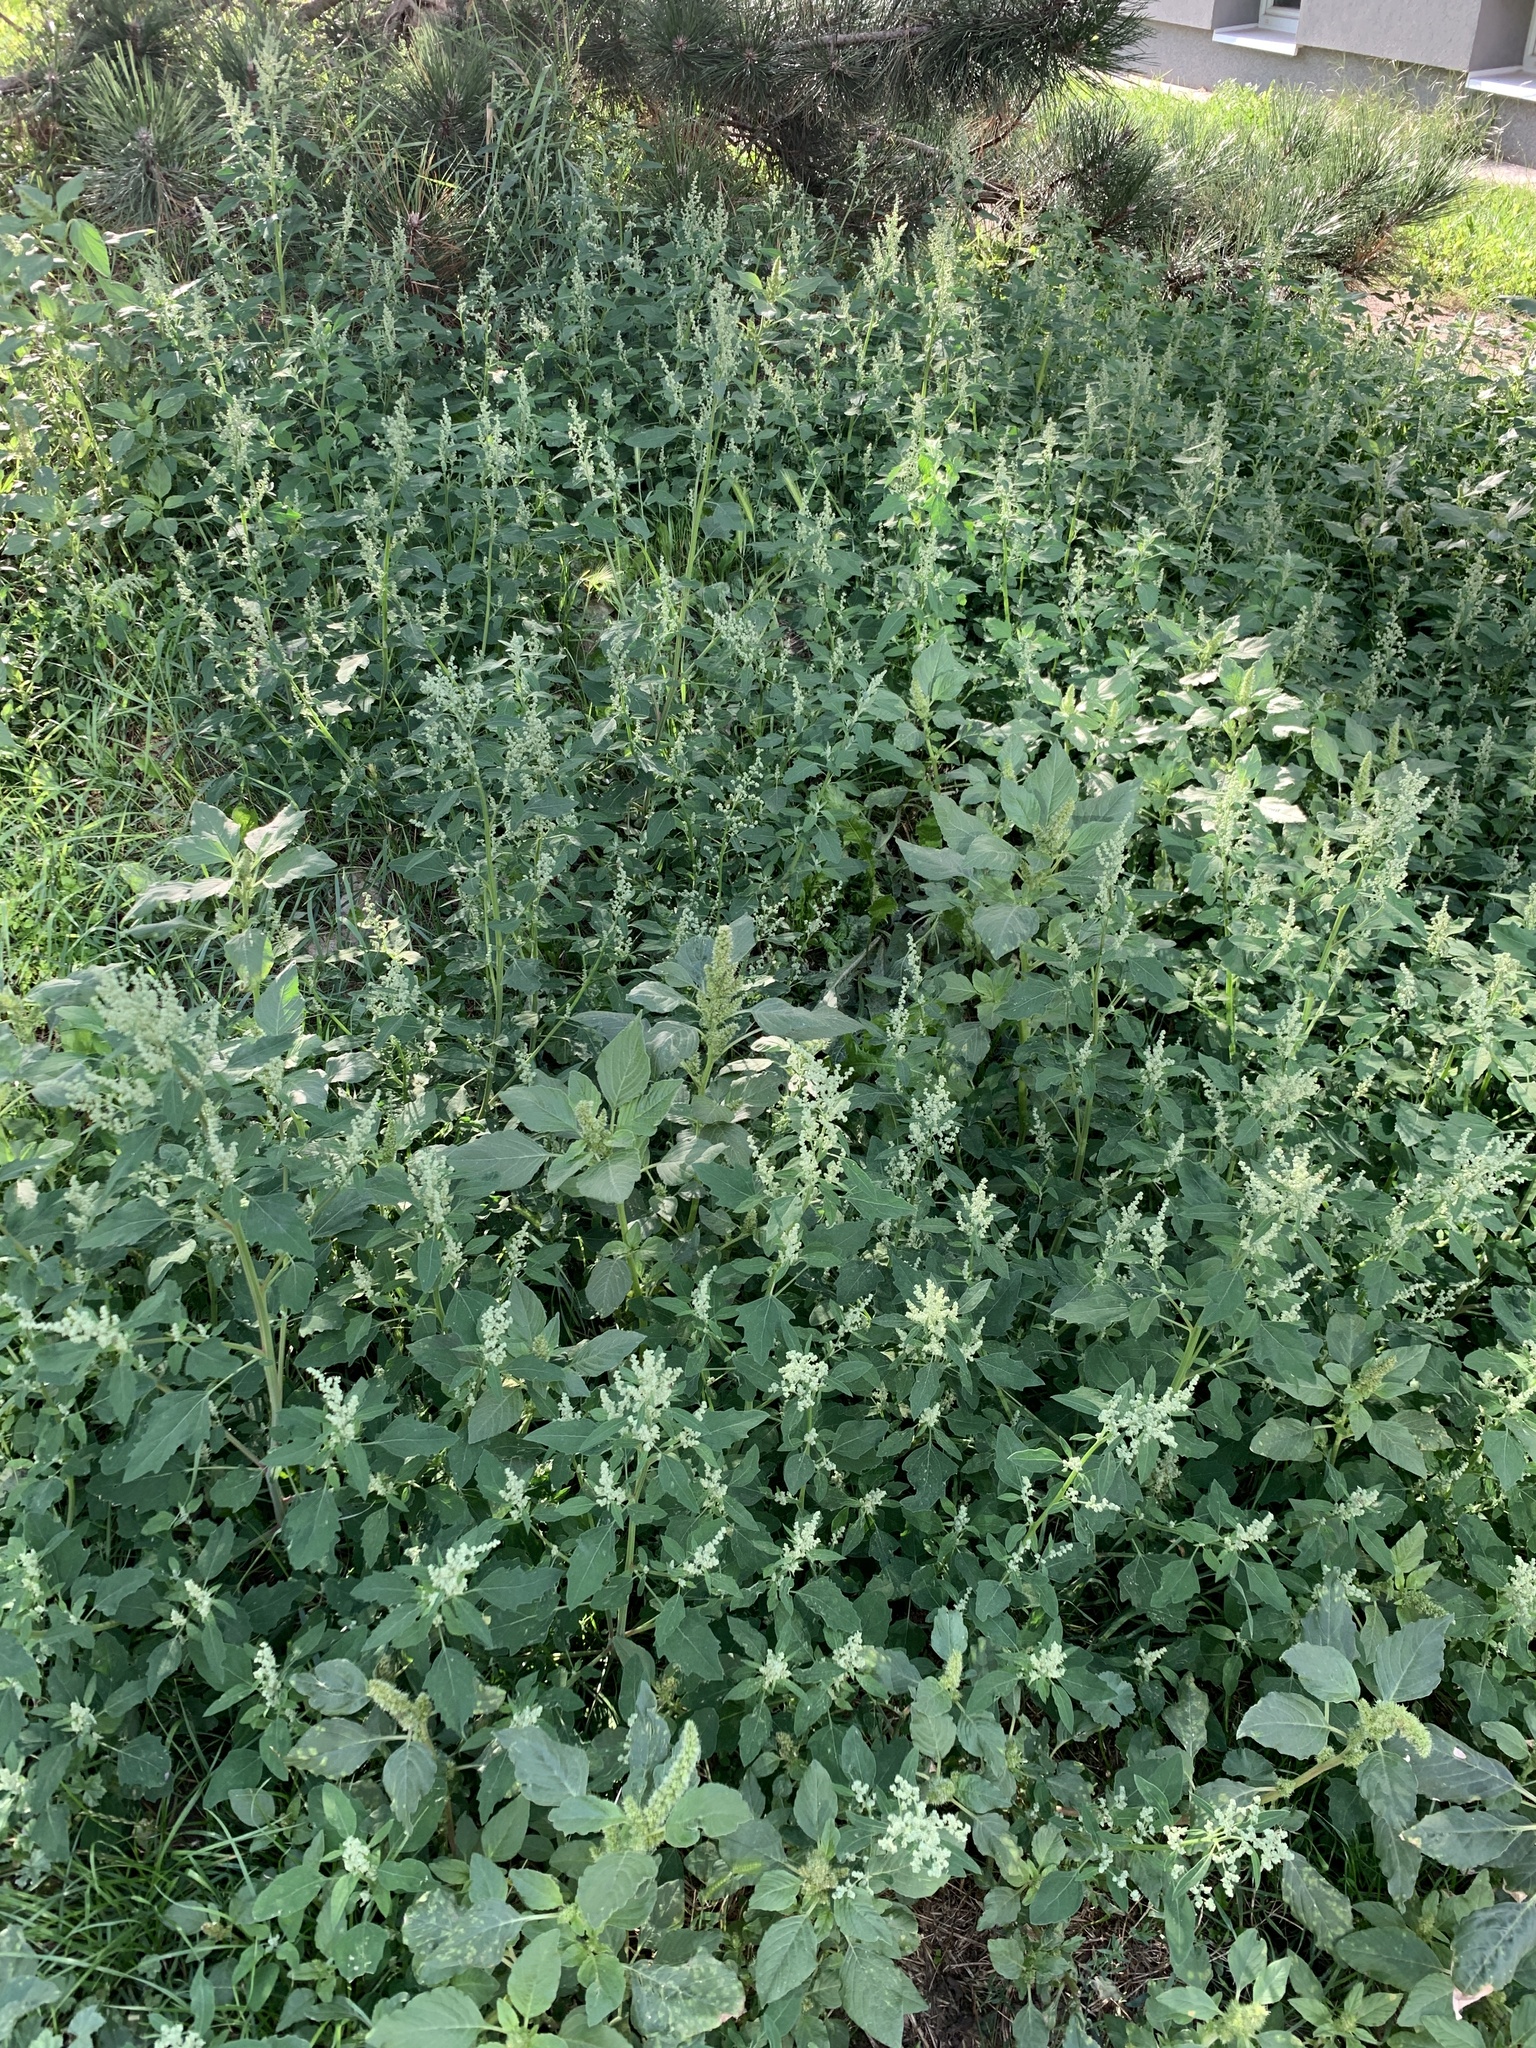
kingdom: Plantae
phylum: Tracheophyta
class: Magnoliopsida
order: Caryophyllales
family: Amaranthaceae
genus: Chenopodium
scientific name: Chenopodium album
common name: Fat-hen
